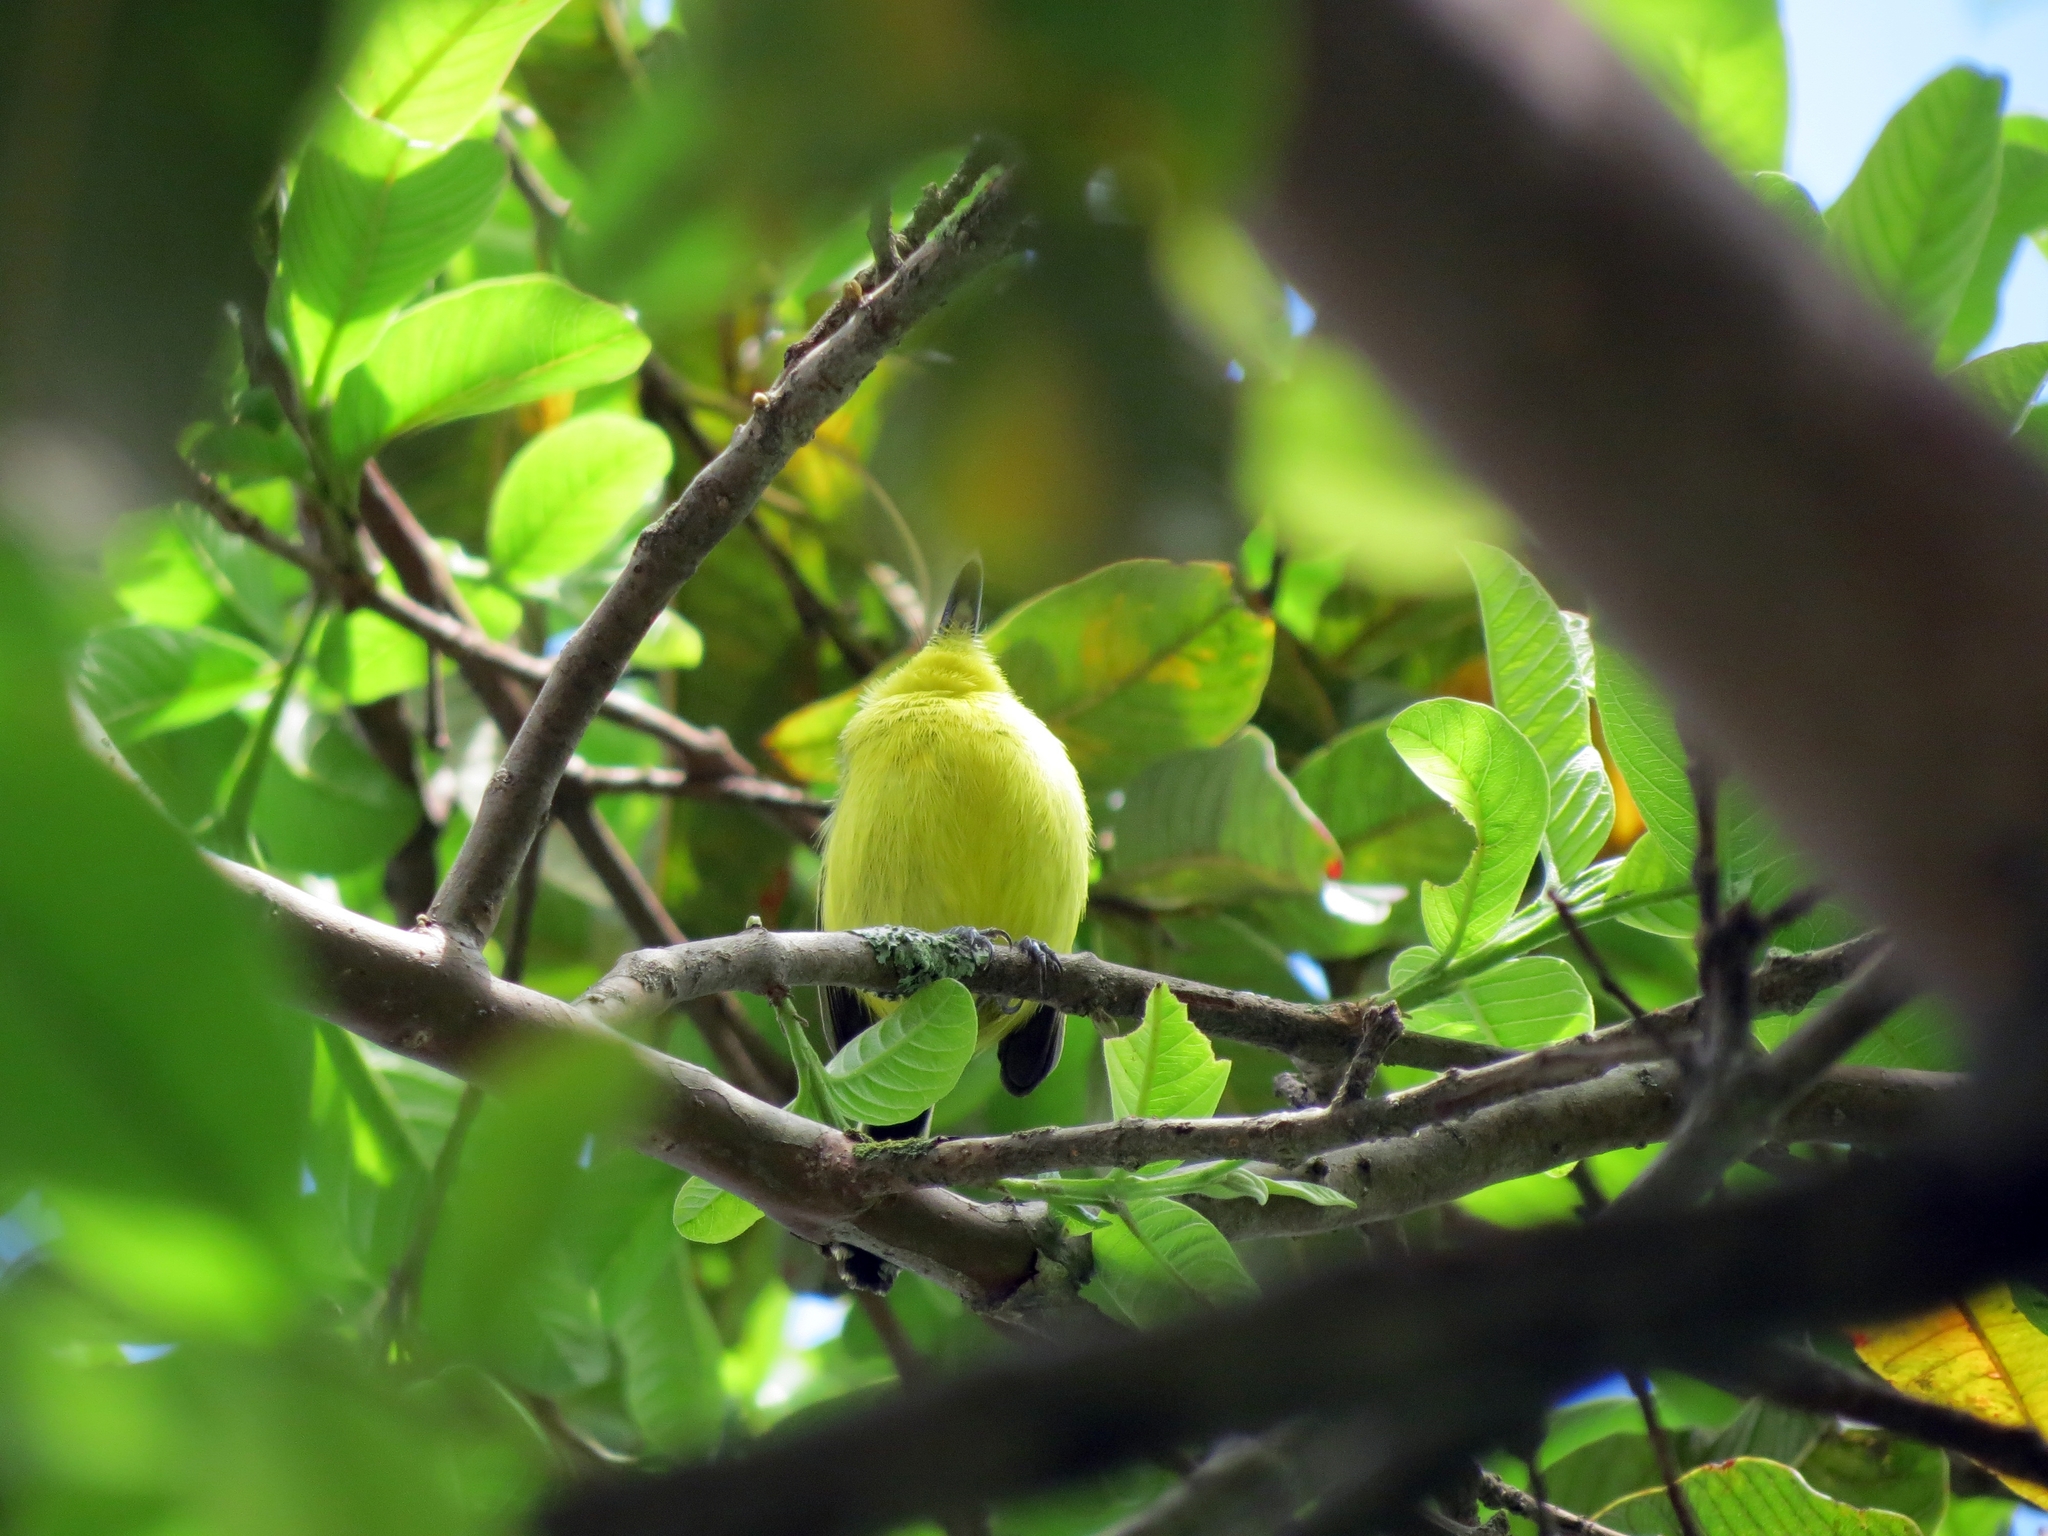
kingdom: Animalia
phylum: Chordata
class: Aves
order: Passeriformes
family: Tyrannidae
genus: Todirostrum
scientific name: Todirostrum cinereum
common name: Common tody-flycatcher
